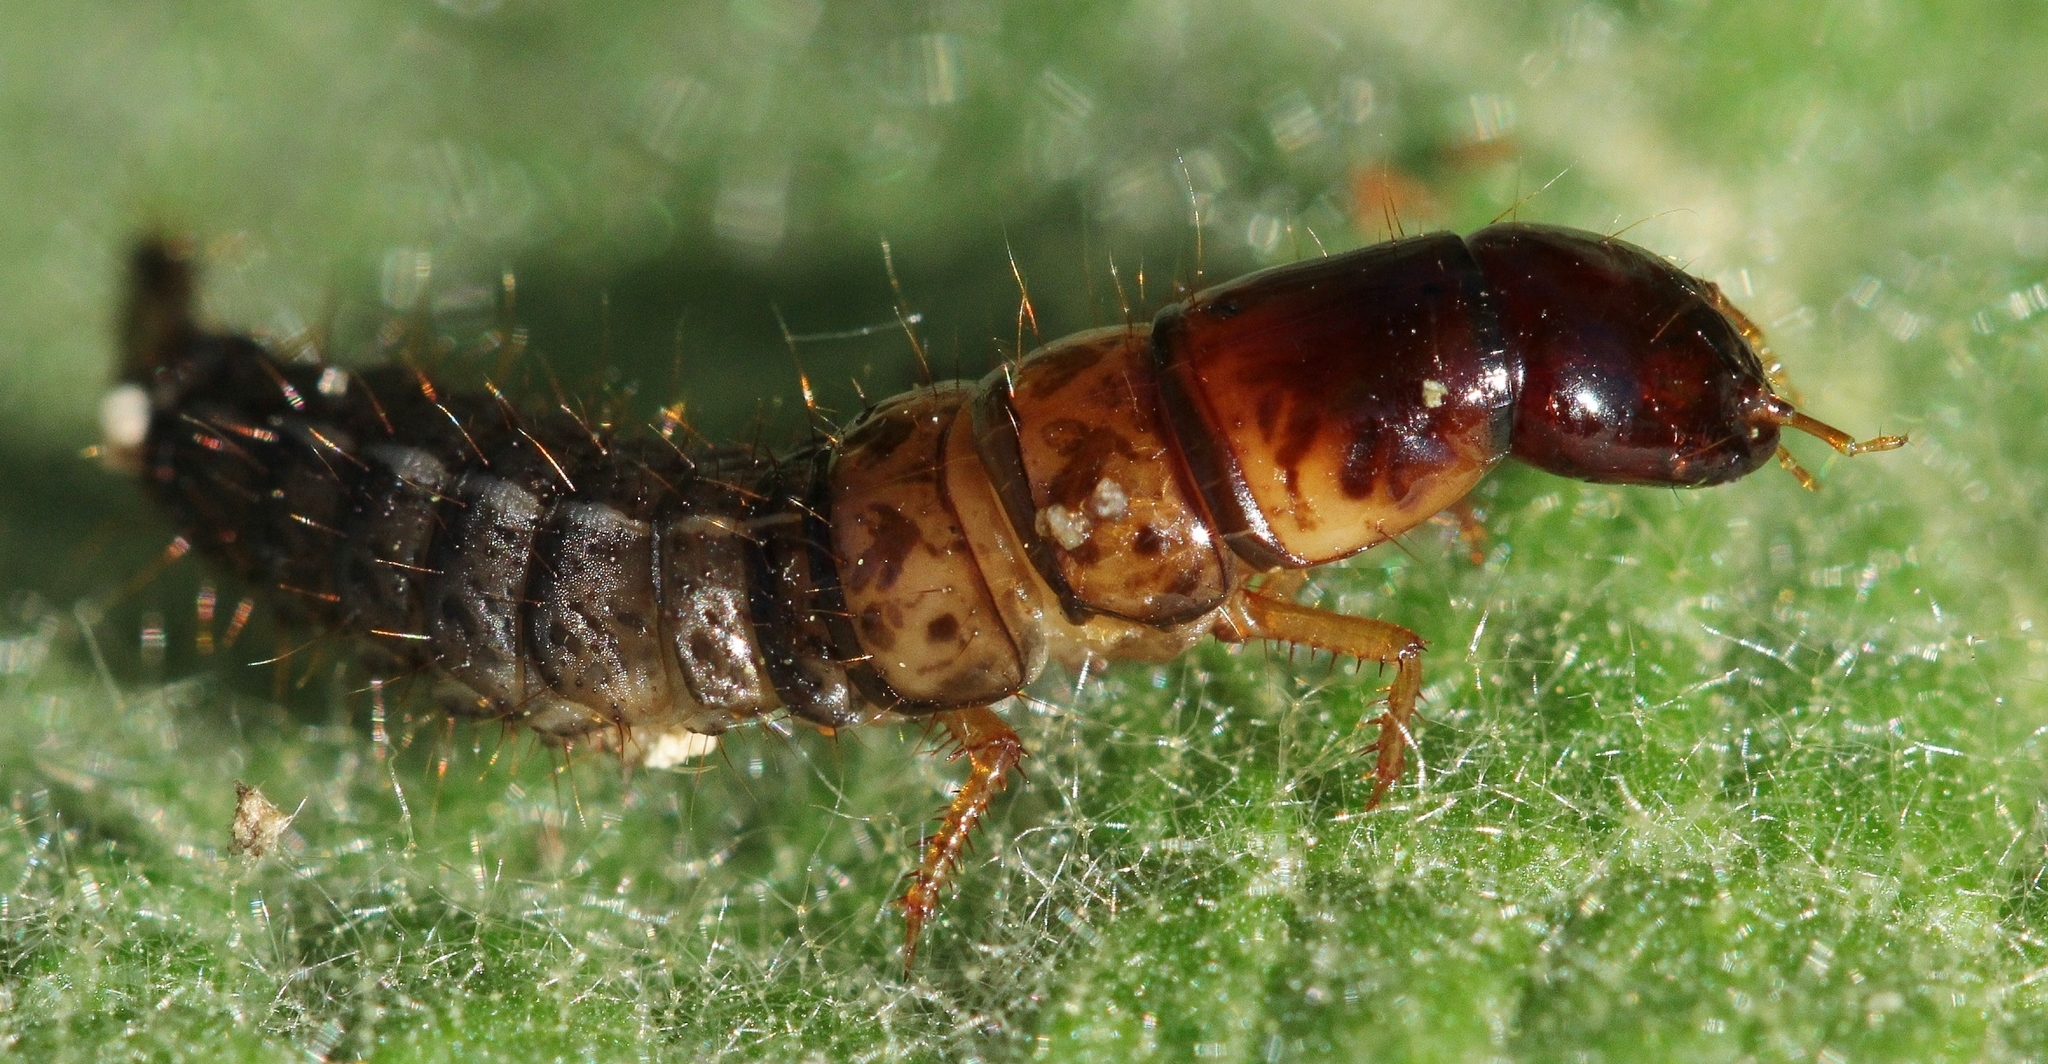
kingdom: Animalia
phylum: Arthropoda
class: Insecta
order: Coleoptera
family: Staphyliniae
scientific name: Staphyliniae
